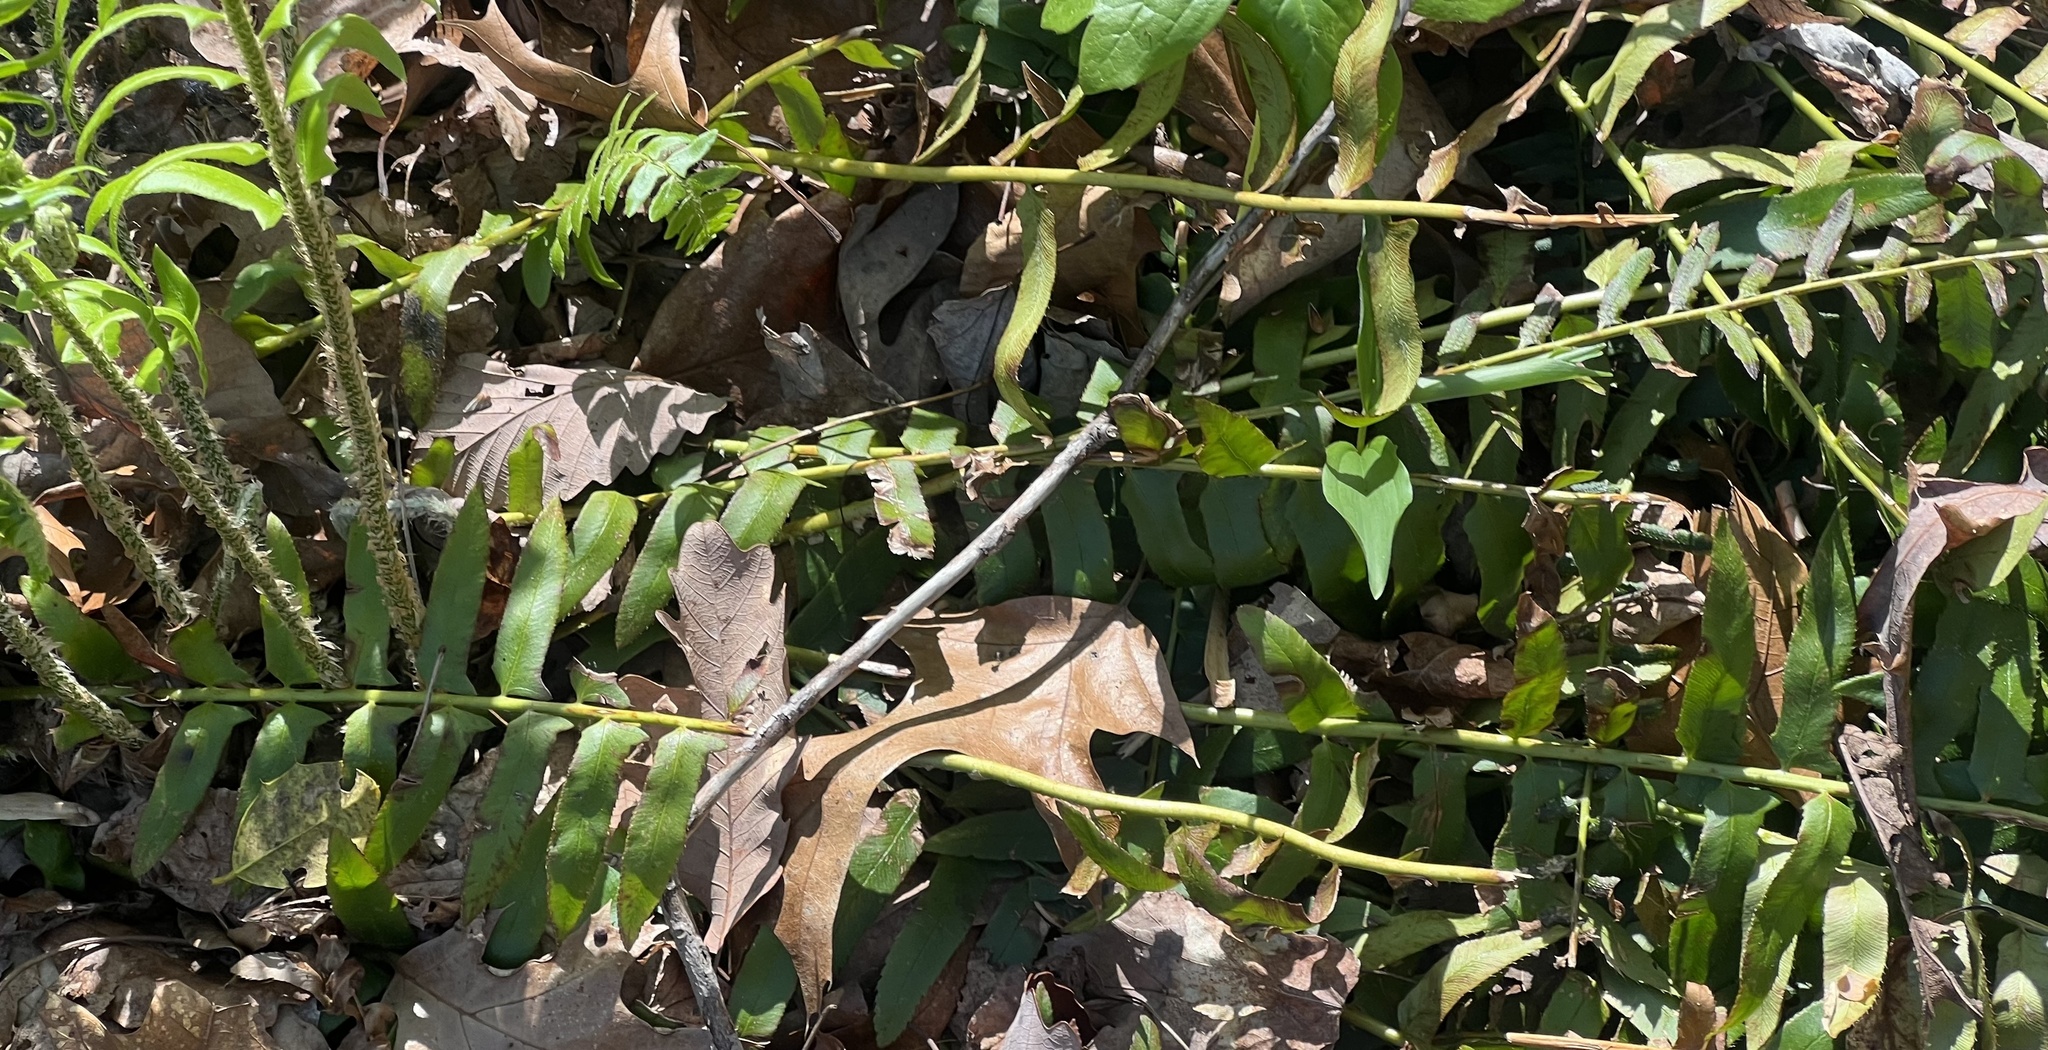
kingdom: Plantae
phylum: Tracheophyta
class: Polypodiopsida
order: Polypodiales
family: Dryopteridaceae
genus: Polystichum
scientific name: Polystichum acrostichoides
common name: Christmas fern
